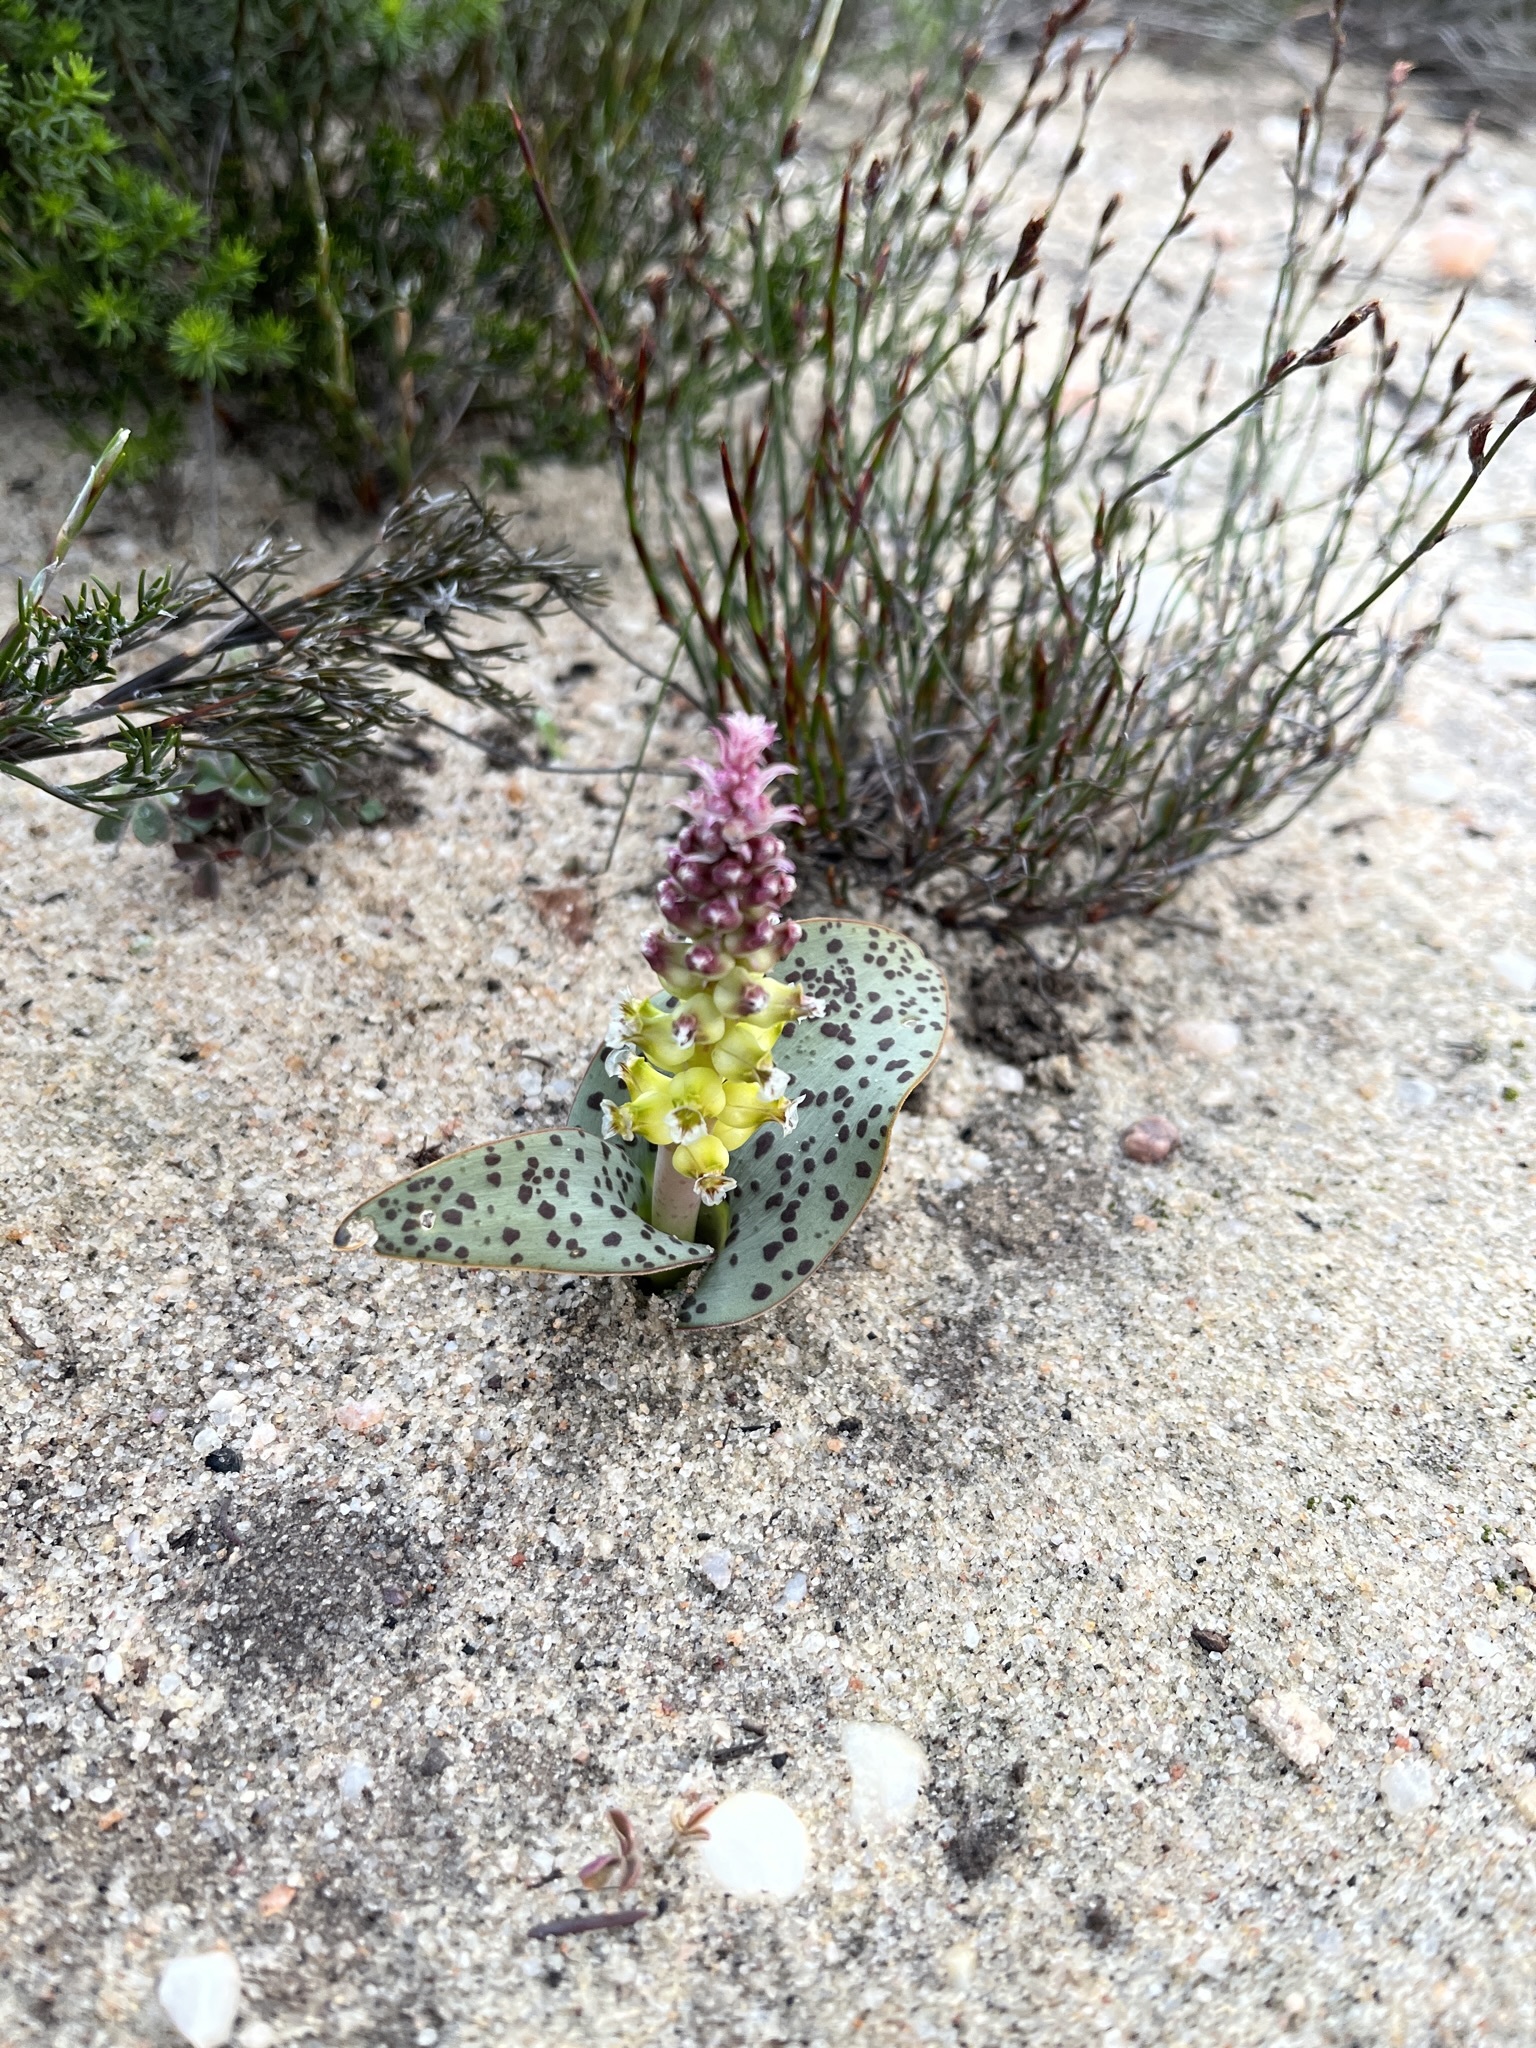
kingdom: Plantae
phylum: Tracheophyta
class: Liliopsida
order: Asparagales
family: Asparagaceae
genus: Lachenalia
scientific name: Lachenalia membranacea
